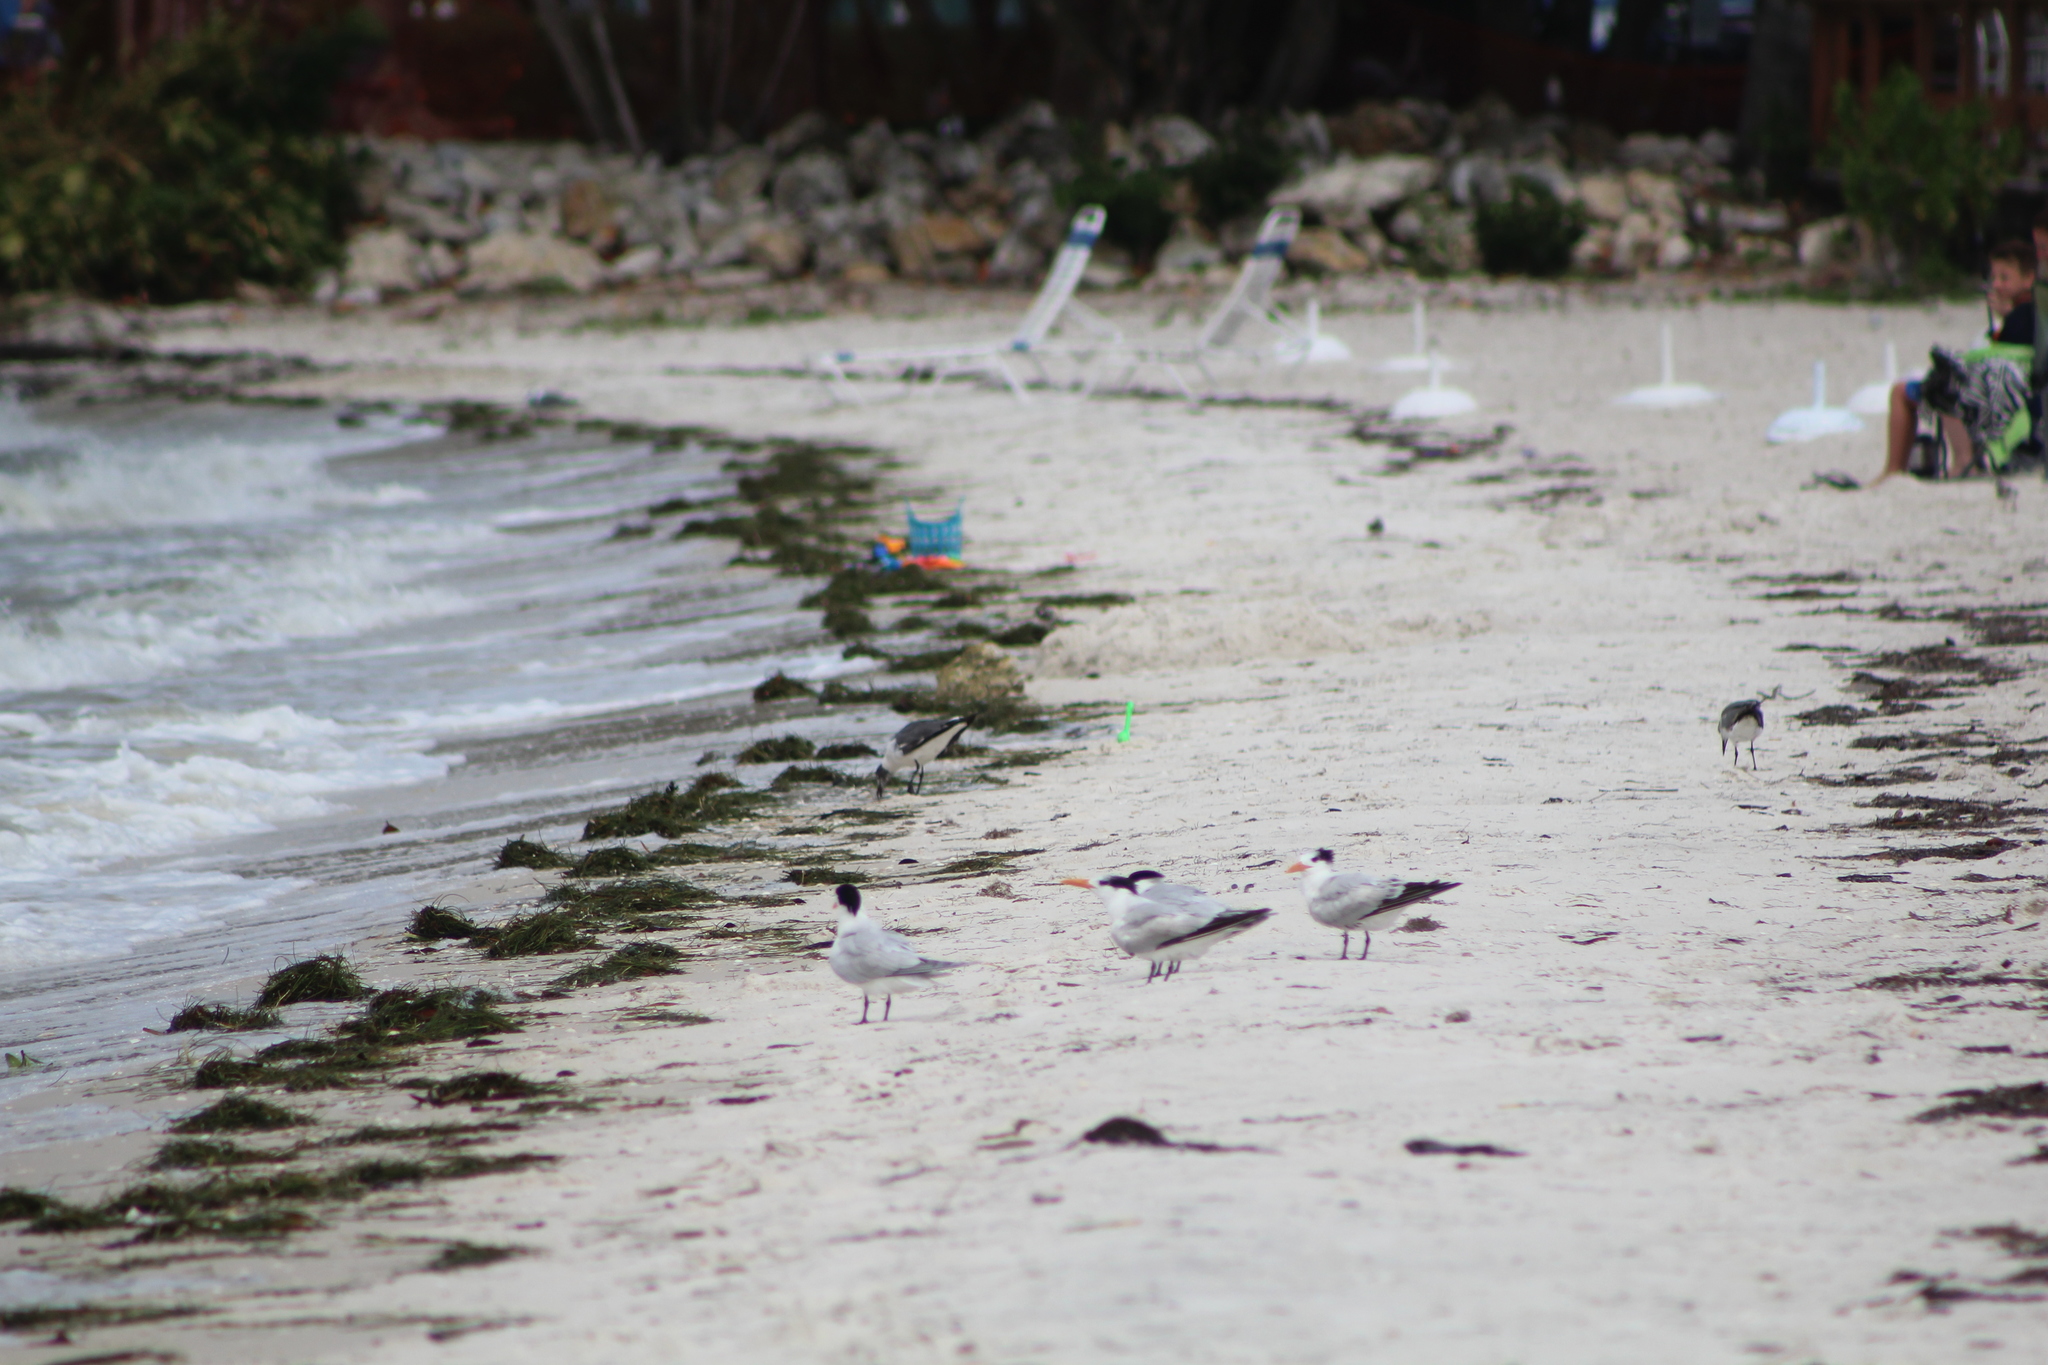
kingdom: Animalia
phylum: Chordata
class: Aves
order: Charadriiformes
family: Laridae
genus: Thalasseus
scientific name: Thalasseus maximus
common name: Royal tern
